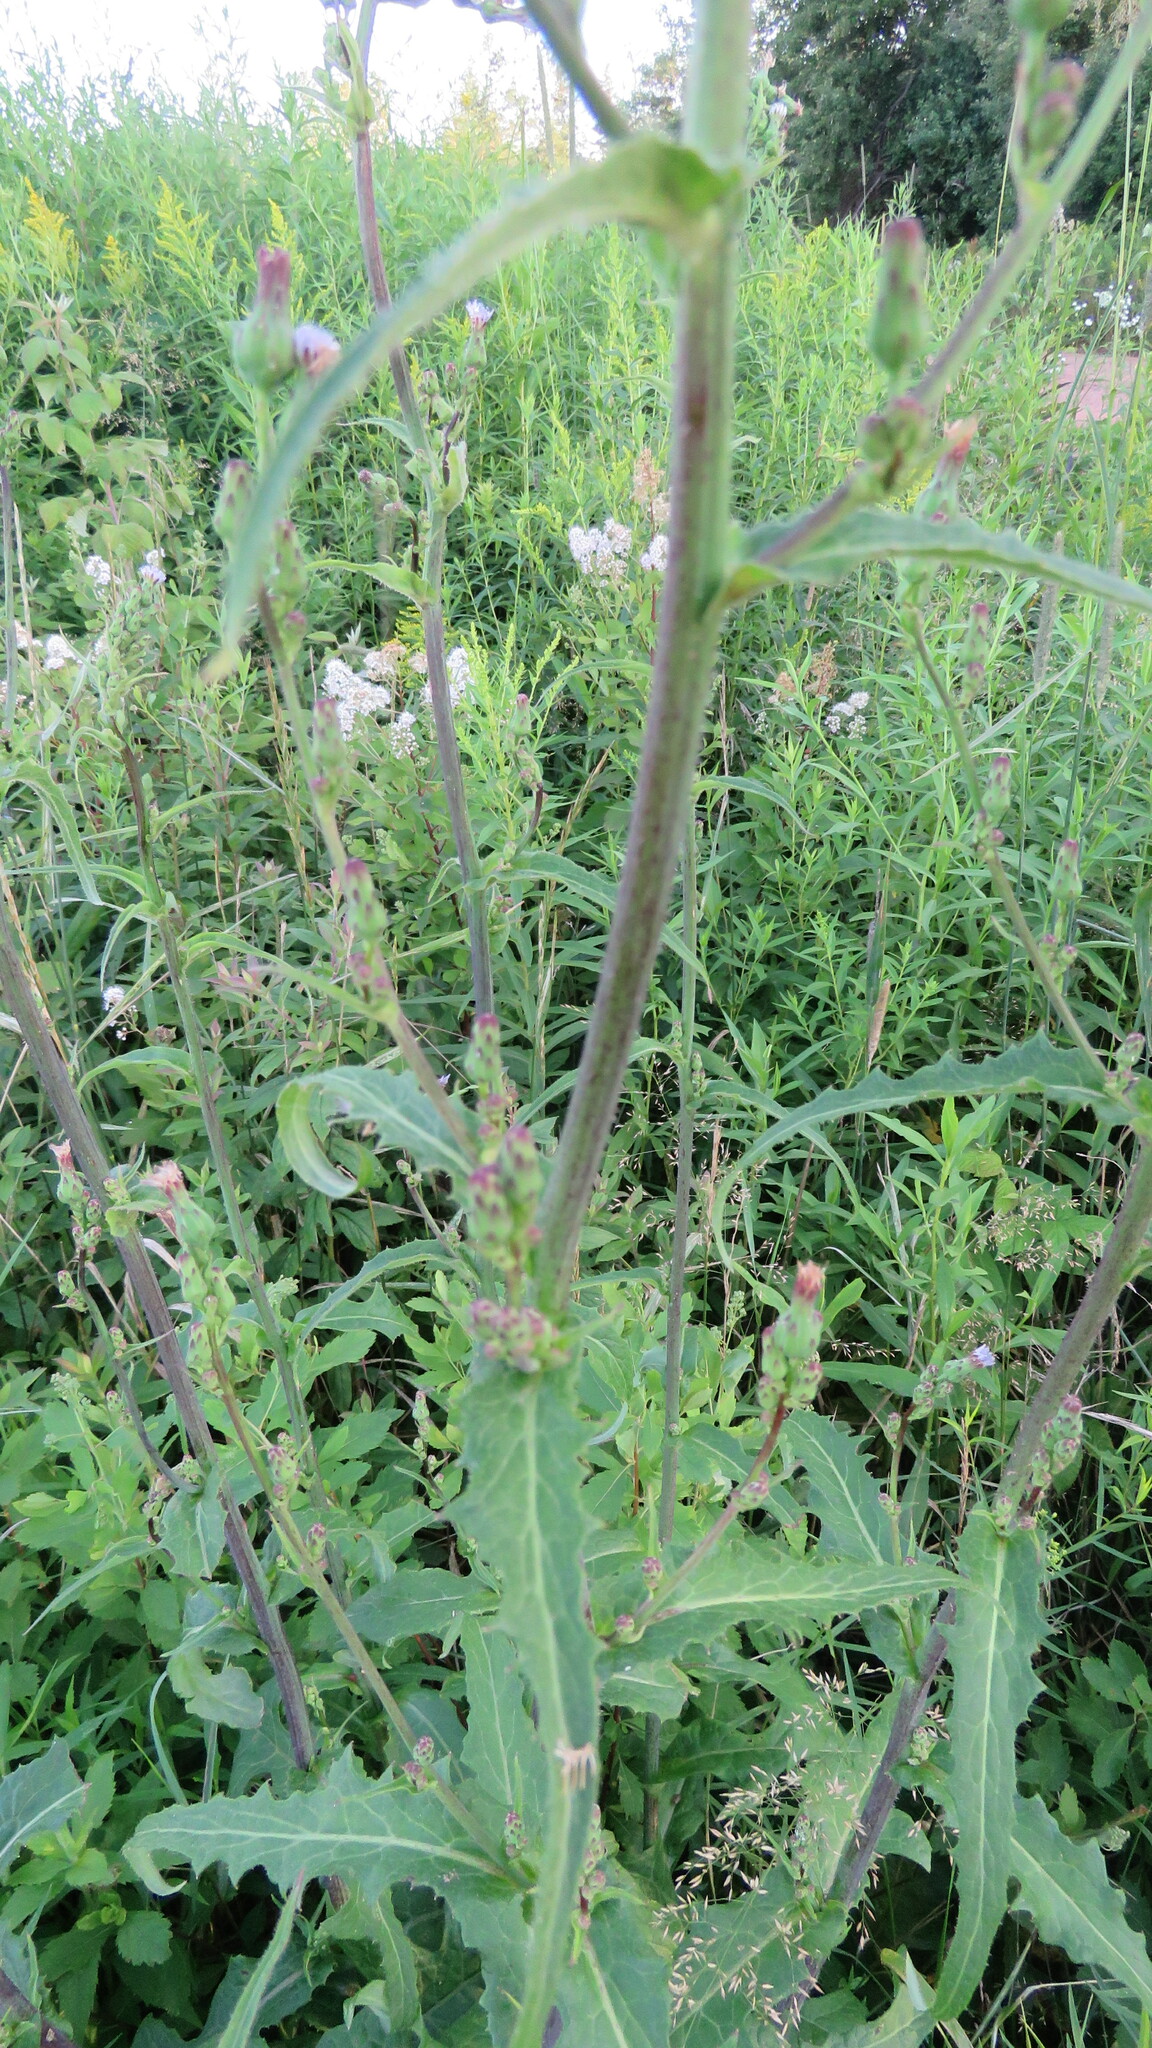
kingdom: Plantae
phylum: Tracheophyta
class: Magnoliopsida
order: Asterales
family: Asteraceae
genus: Lactuca
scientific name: Lactuca biennis
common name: Blue wood lettuce
